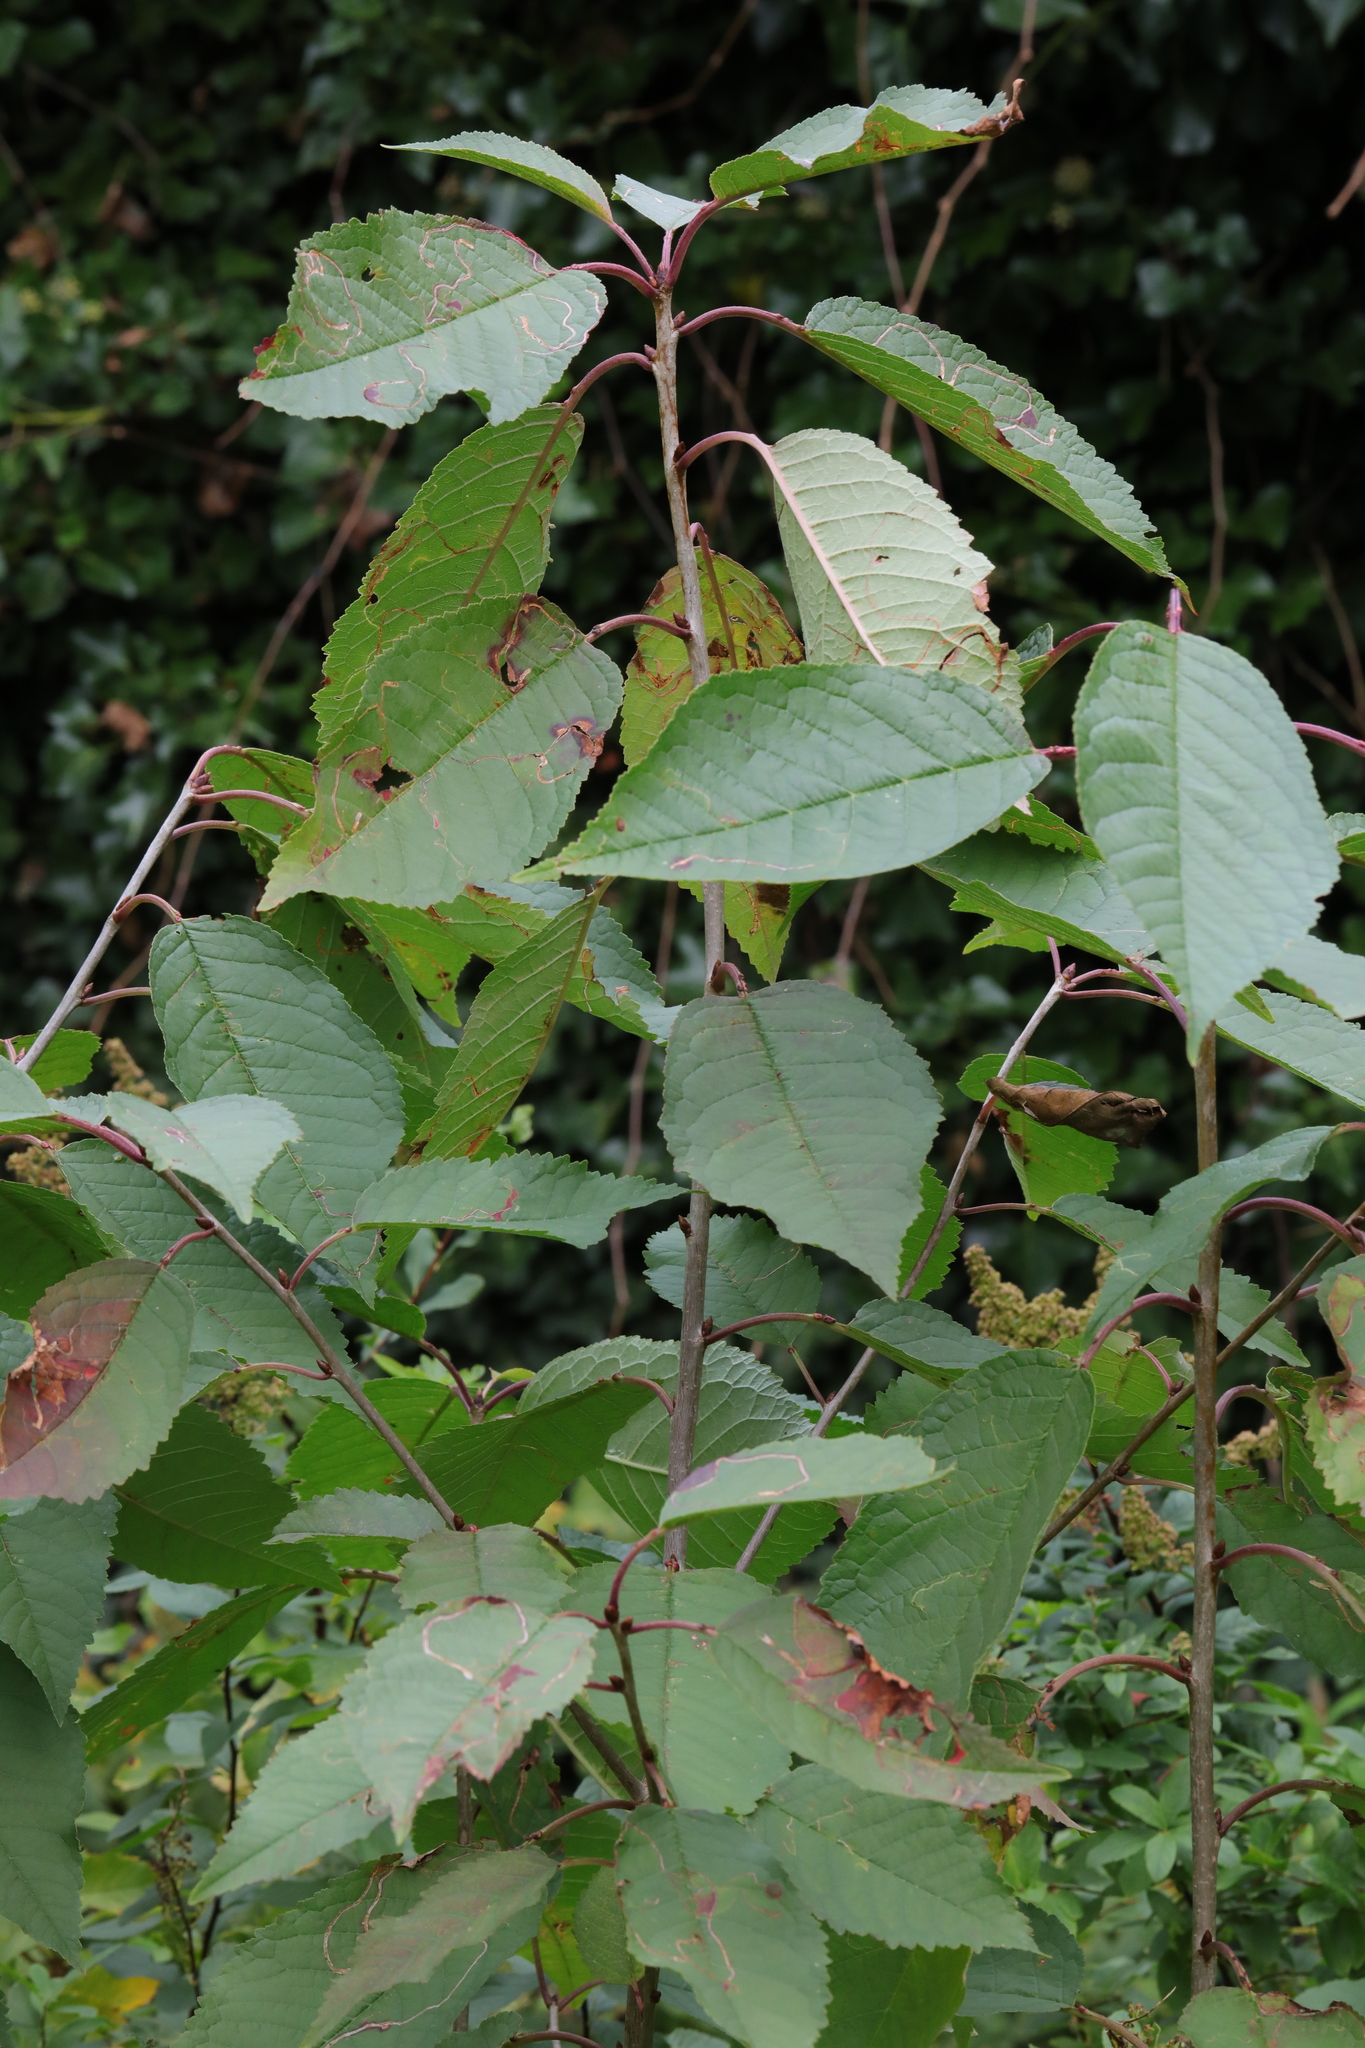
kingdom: Plantae
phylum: Tracheophyta
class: Magnoliopsida
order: Rosales
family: Rosaceae
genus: Prunus
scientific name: Prunus avium
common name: Sweet cherry
